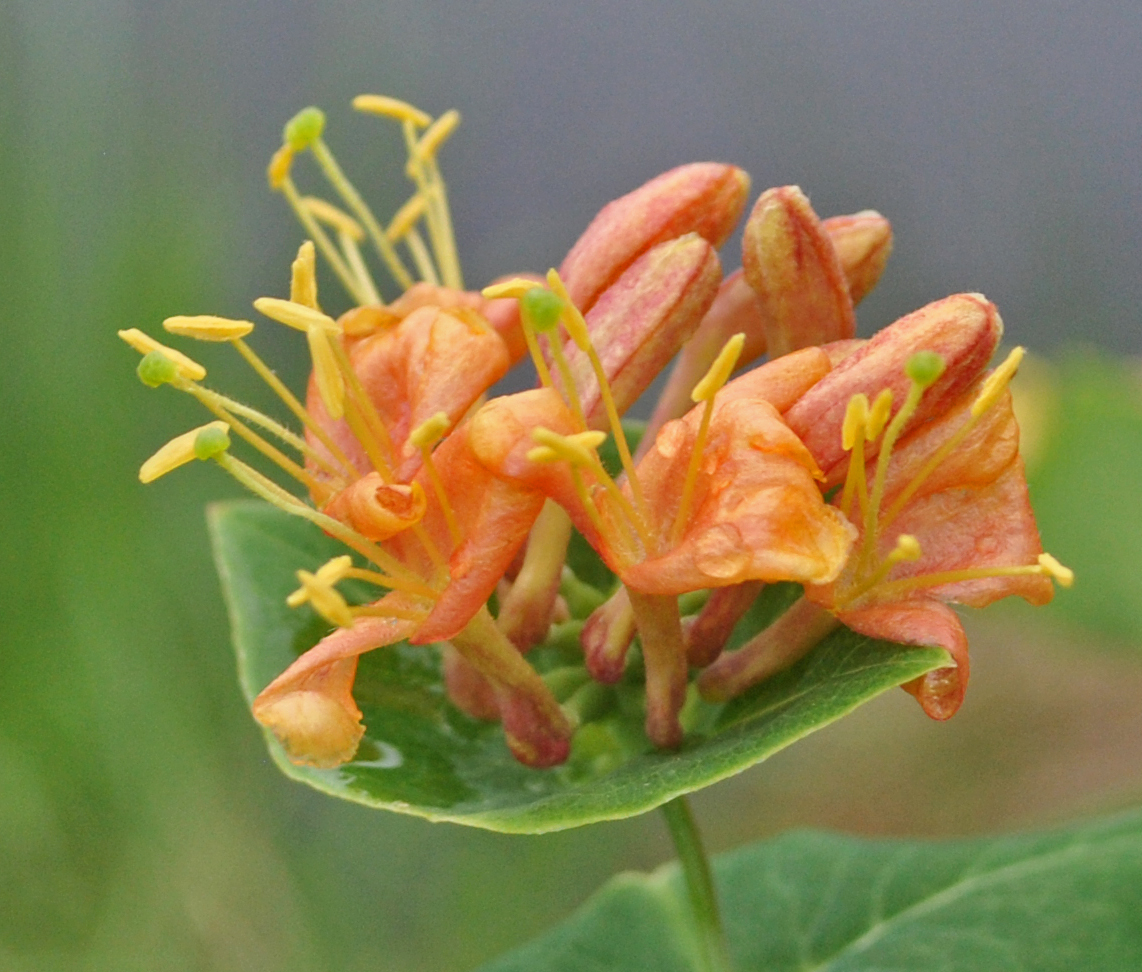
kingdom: Plantae
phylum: Tracheophyta
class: Magnoliopsida
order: Dipsacales
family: Caprifoliaceae
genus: Lonicera
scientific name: Lonicera dioica
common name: Limber honeysuckle
